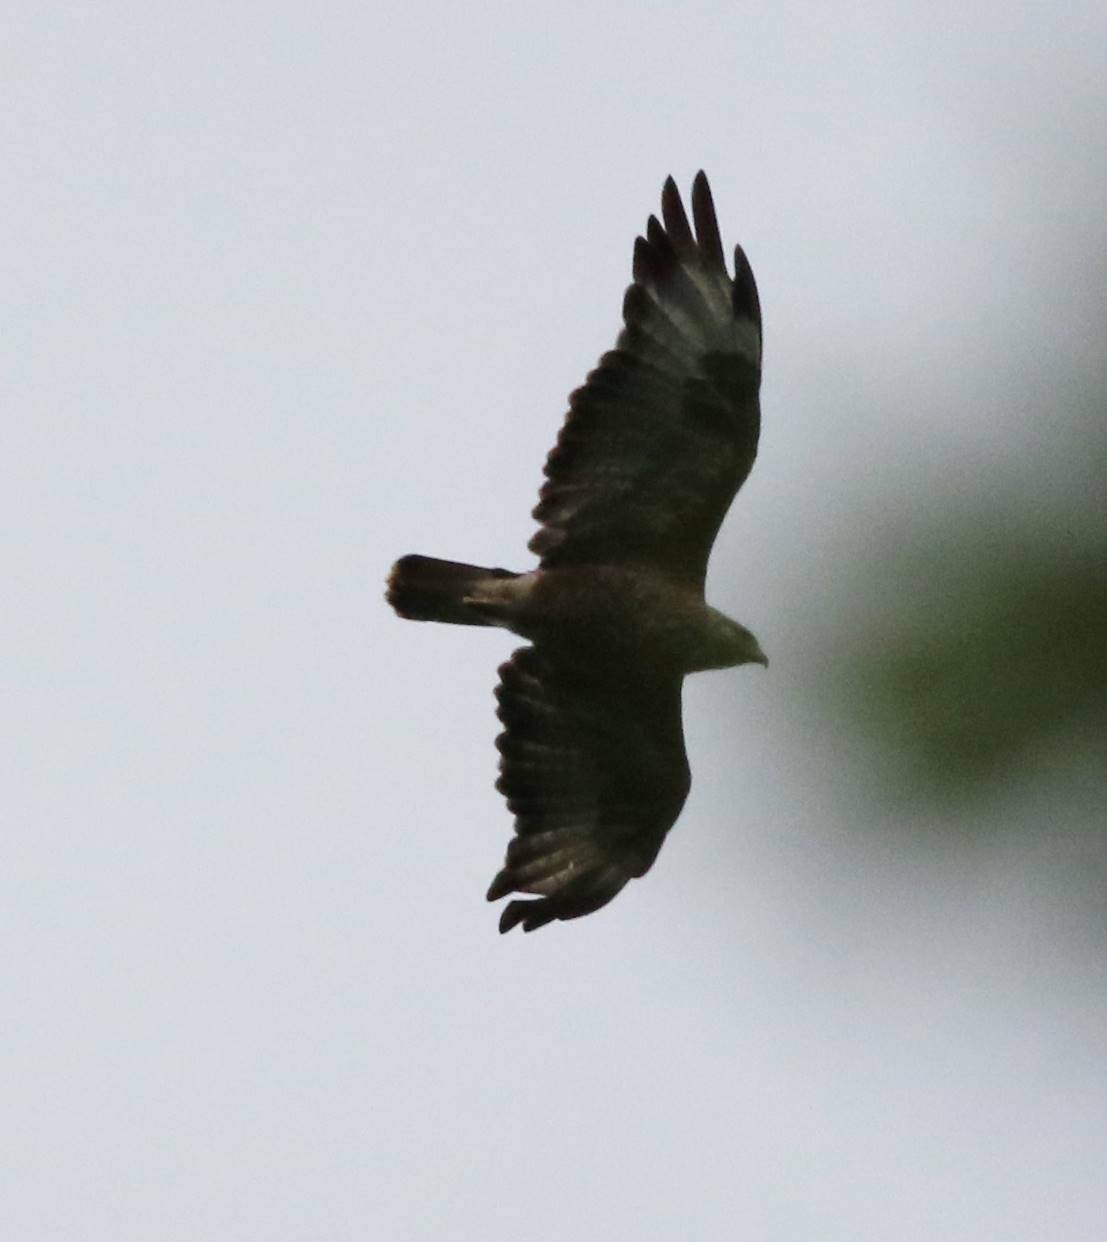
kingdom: Animalia
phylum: Chordata
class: Aves
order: Accipitriformes
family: Accipitridae
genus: Buteo
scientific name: Buteo rufinus
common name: Long-legged buzzard
